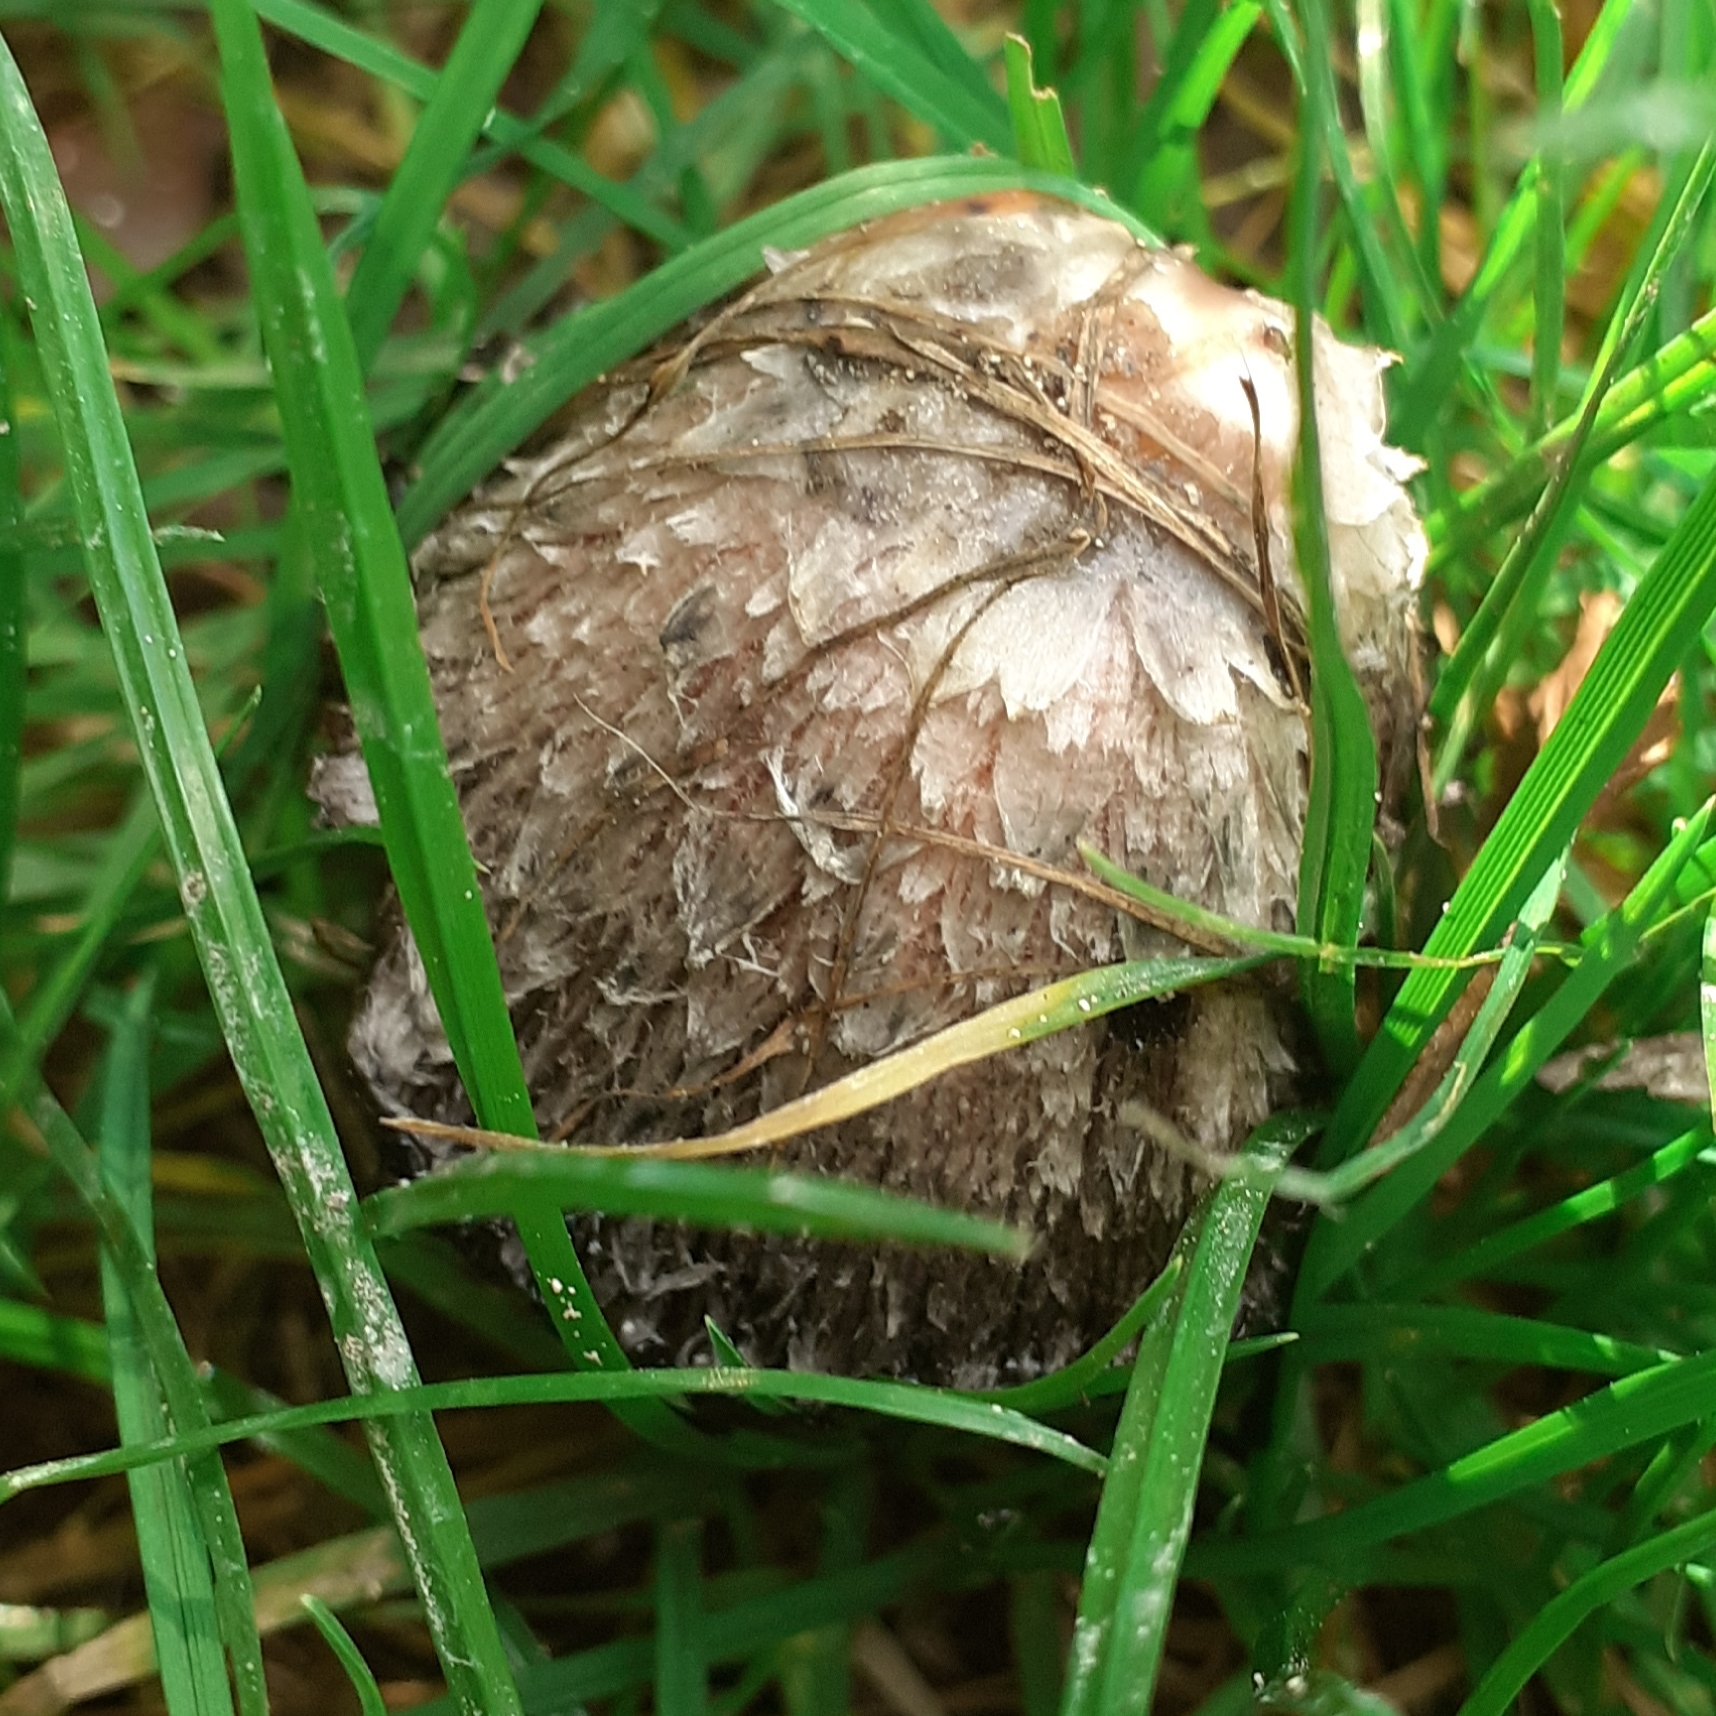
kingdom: Fungi
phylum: Basidiomycota
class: Agaricomycetes
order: Agaricales
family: Agaricaceae
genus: Coprinus
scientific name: Coprinus comatus
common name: Lawyer's wig
